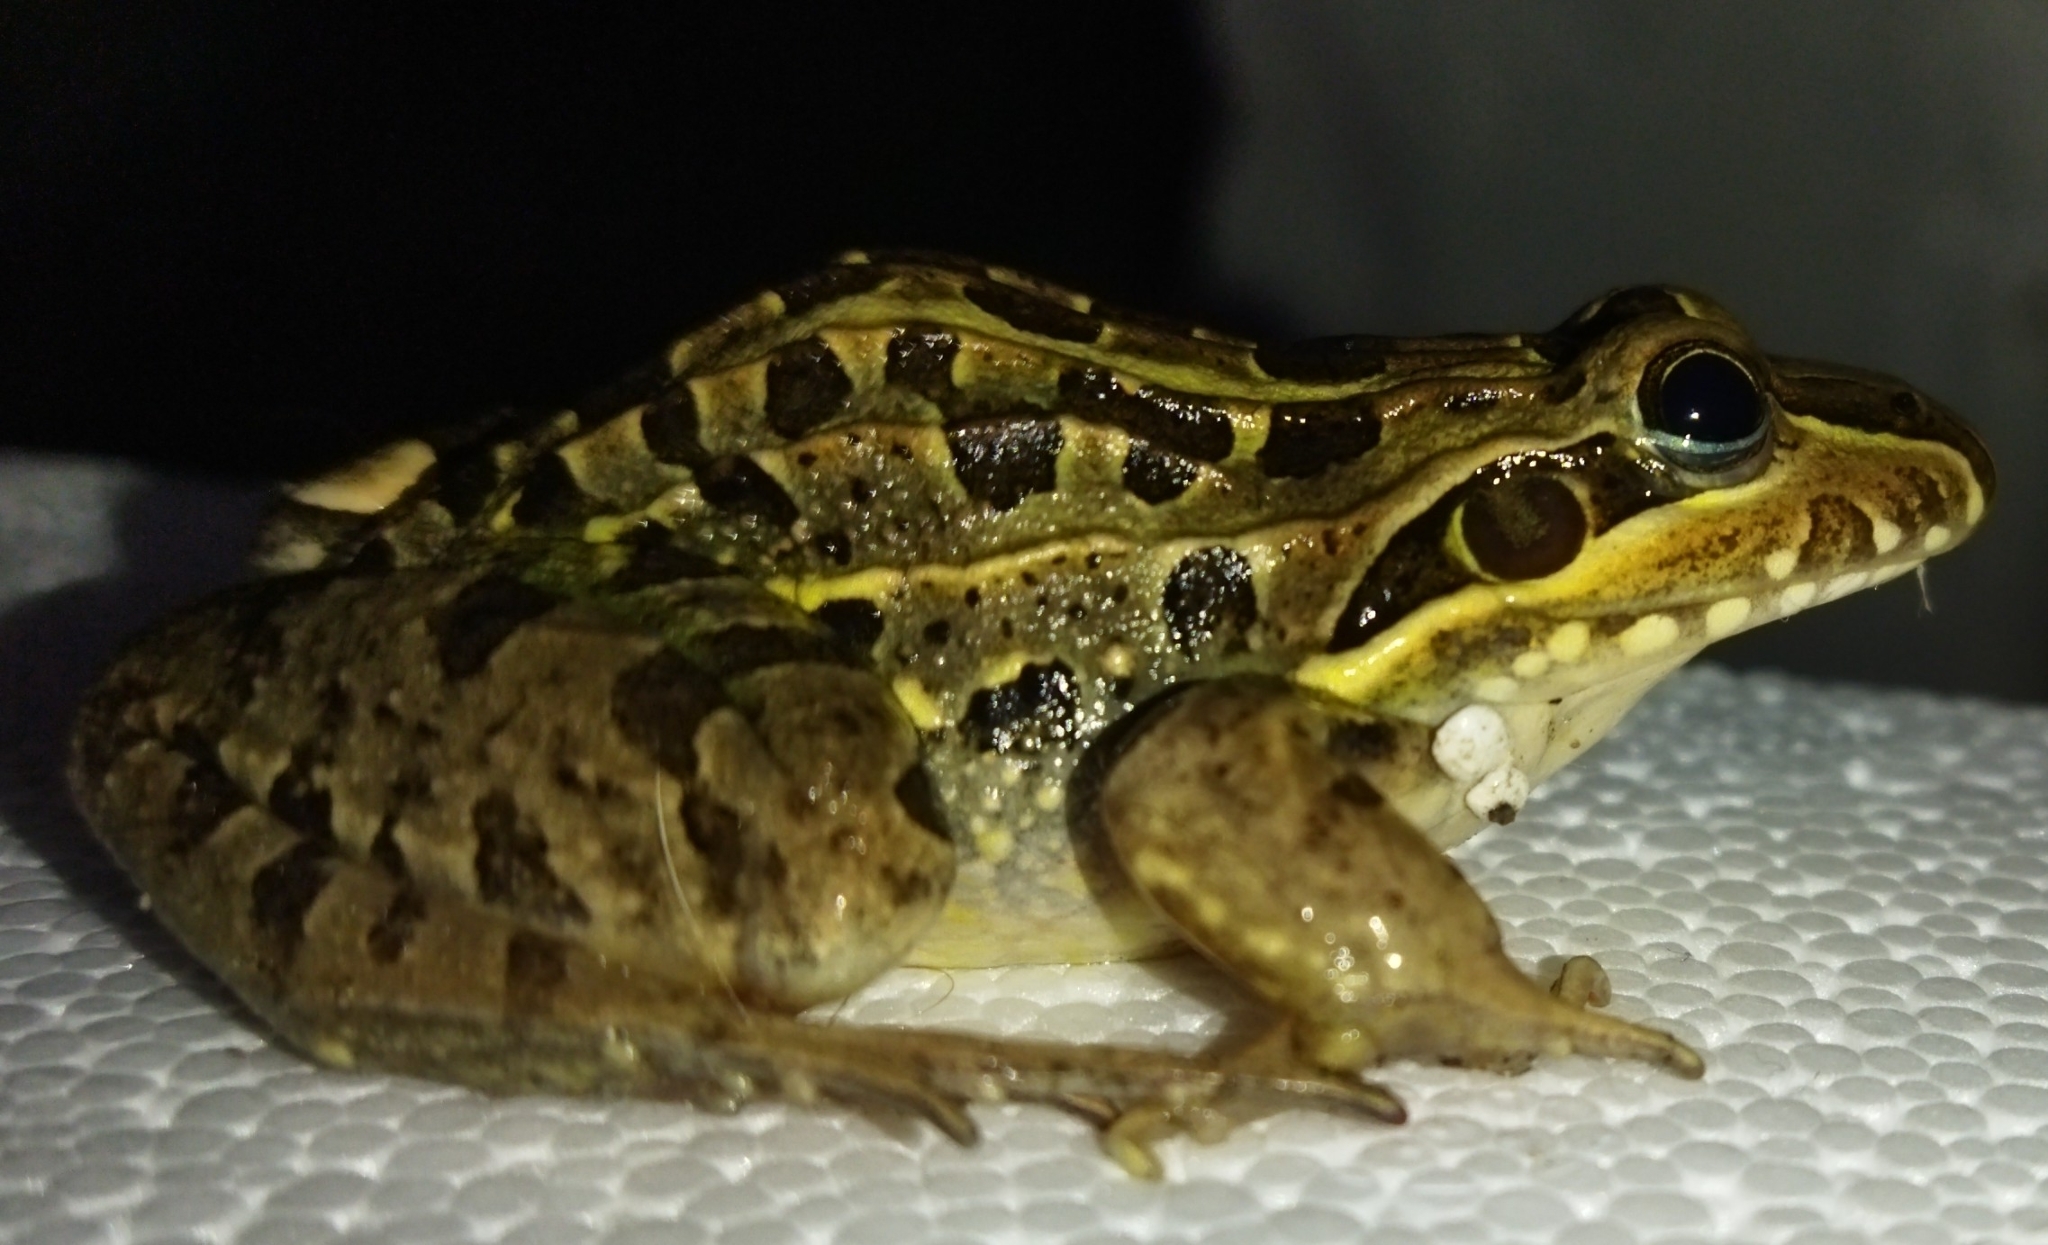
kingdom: Animalia
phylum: Chordata
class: Amphibia
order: Anura
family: Leptodactylidae
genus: Leptodactylus
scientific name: Leptodactylus luctator
